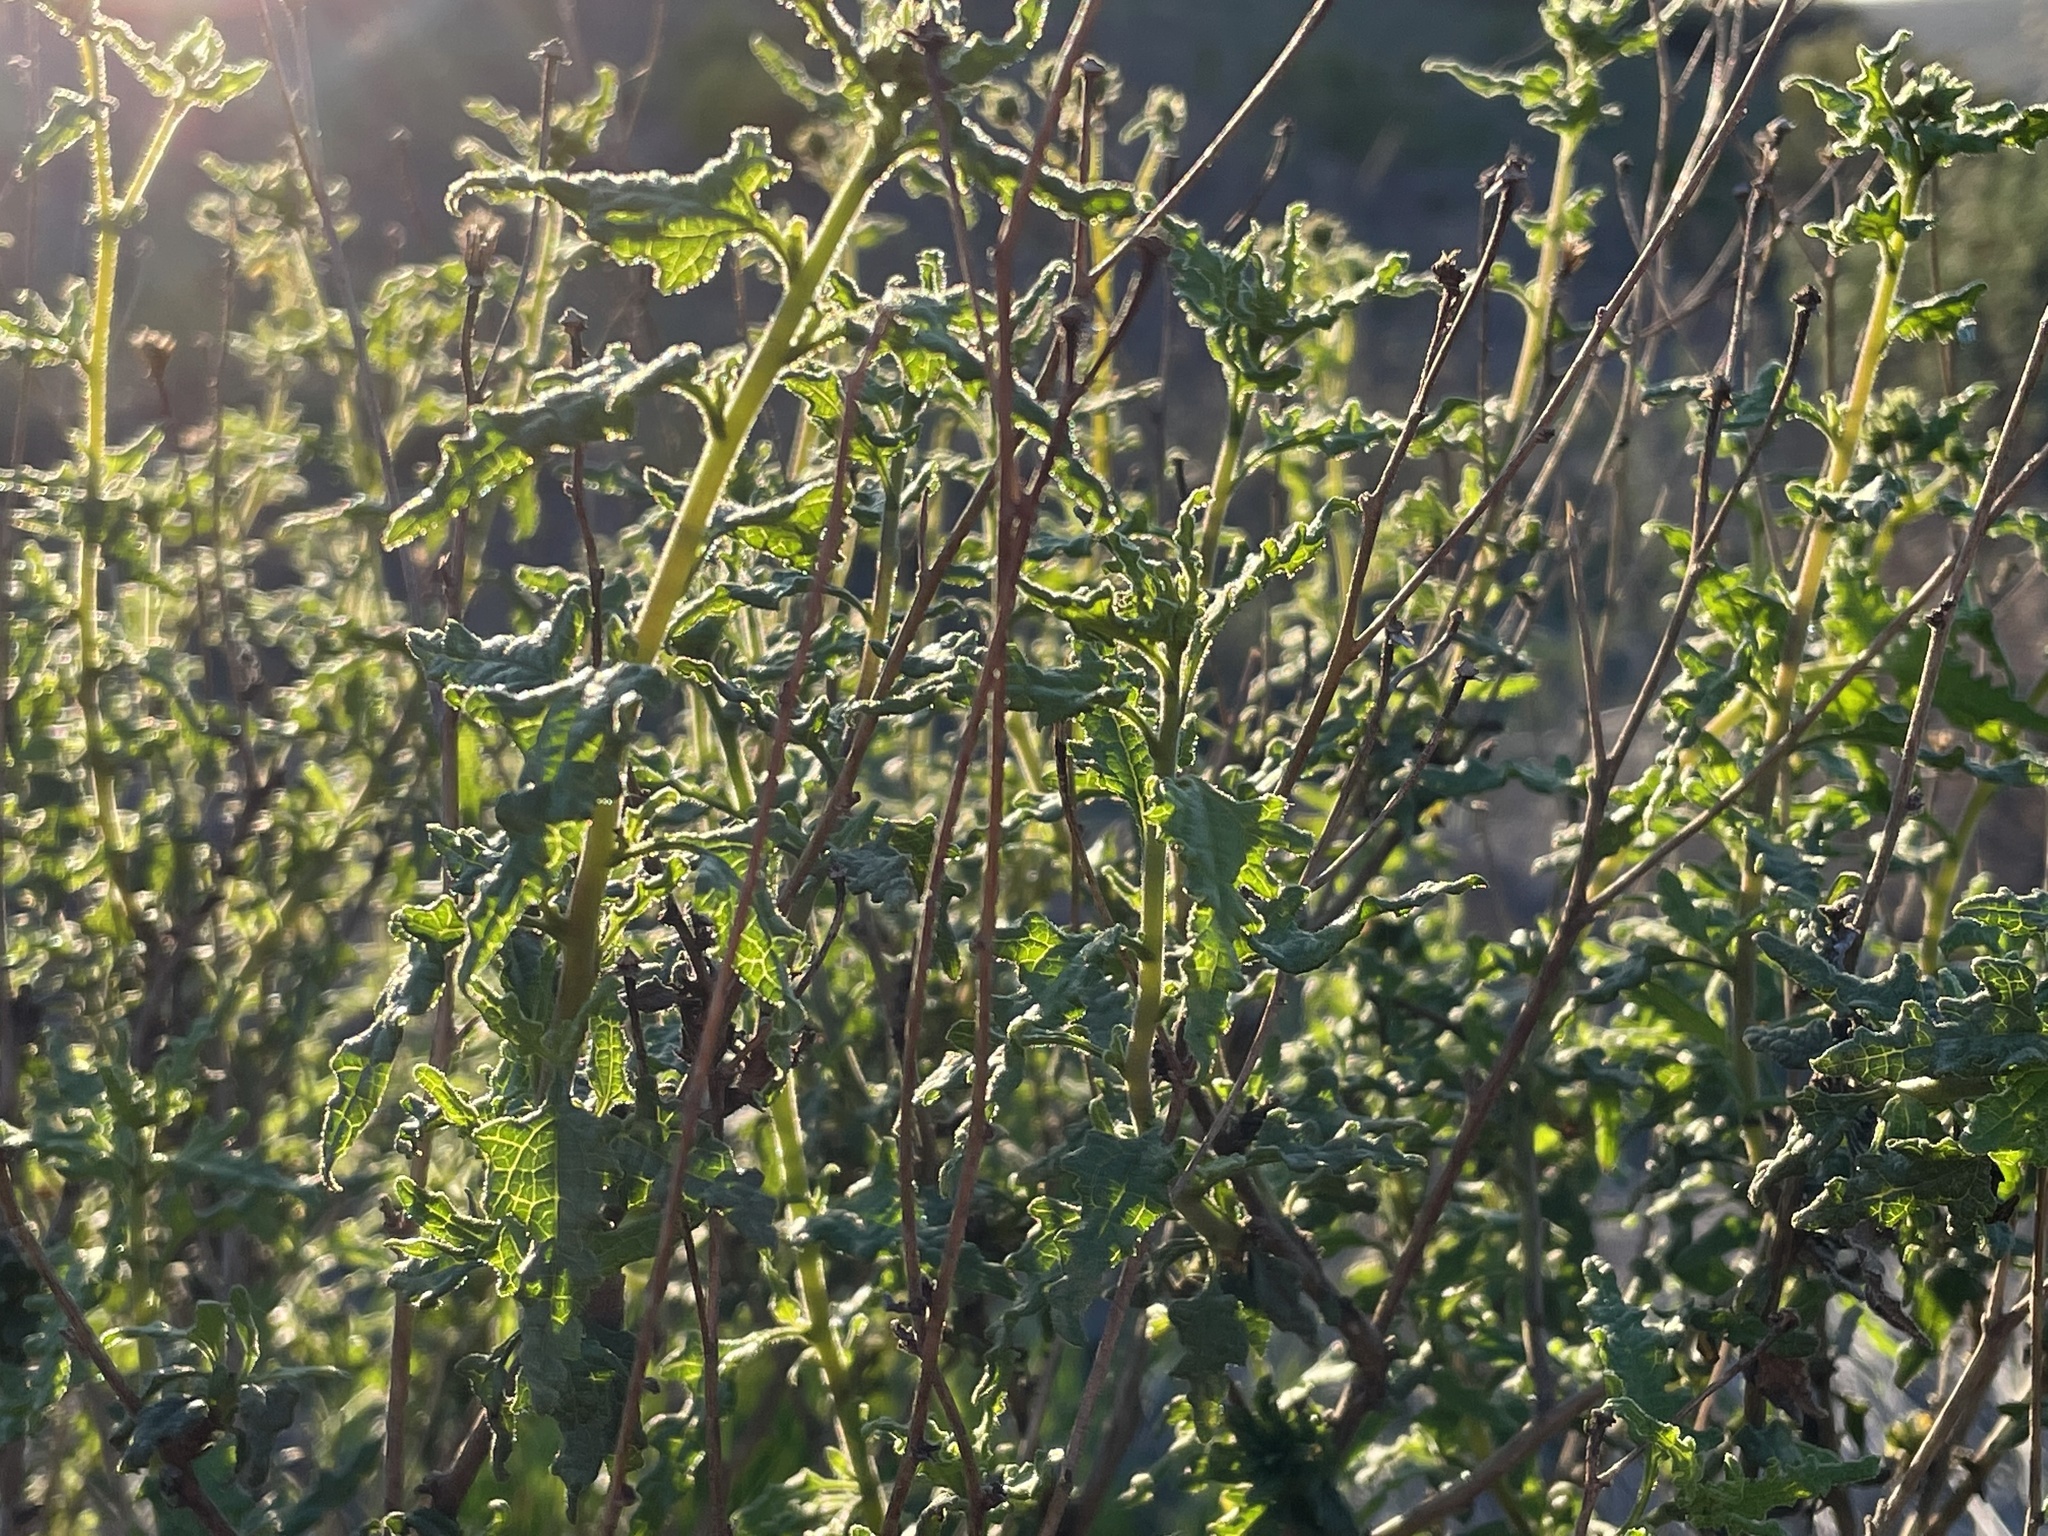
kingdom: Plantae
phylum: Tracheophyta
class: Magnoliopsida
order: Asterales
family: Asteraceae
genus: Bahiopsis
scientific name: Bahiopsis laciniata
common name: San diego county viguiera
